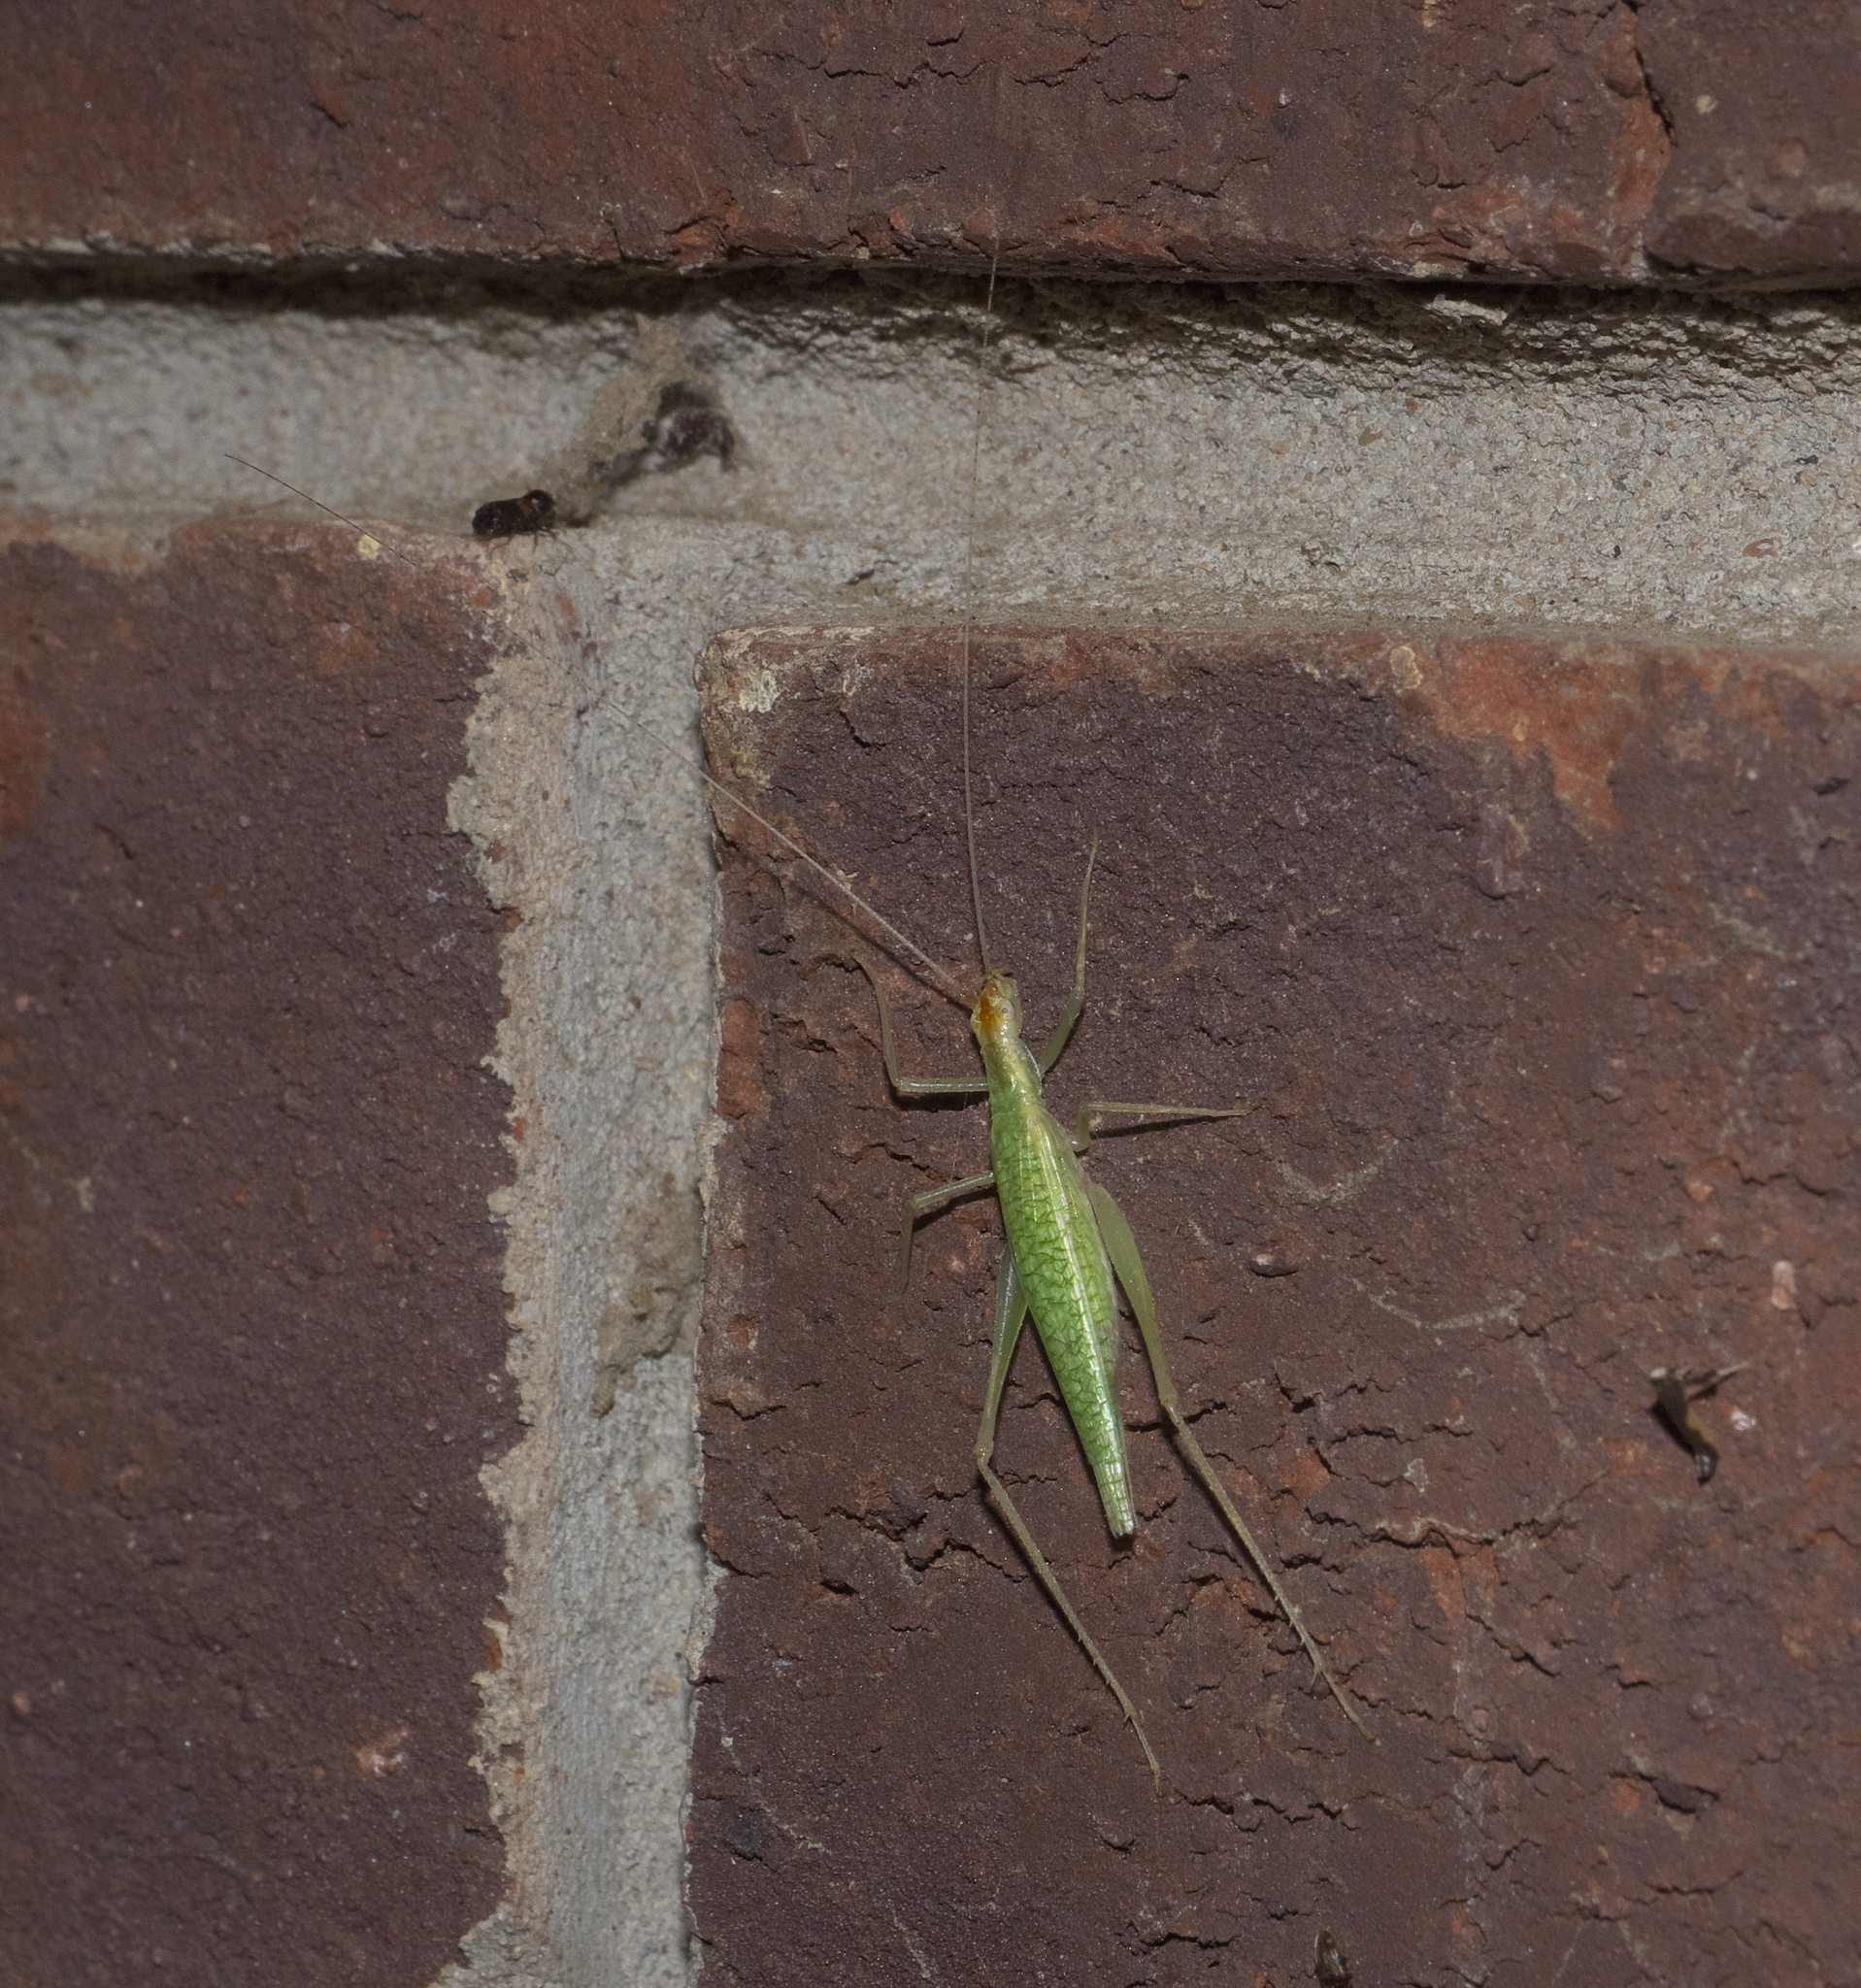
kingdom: Animalia
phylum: Arthropoda
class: Insecta
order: Orthoptera
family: Gryllidae
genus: Oecanthus
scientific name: Oecanthus niveus
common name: Narrow-winged tree cricket
